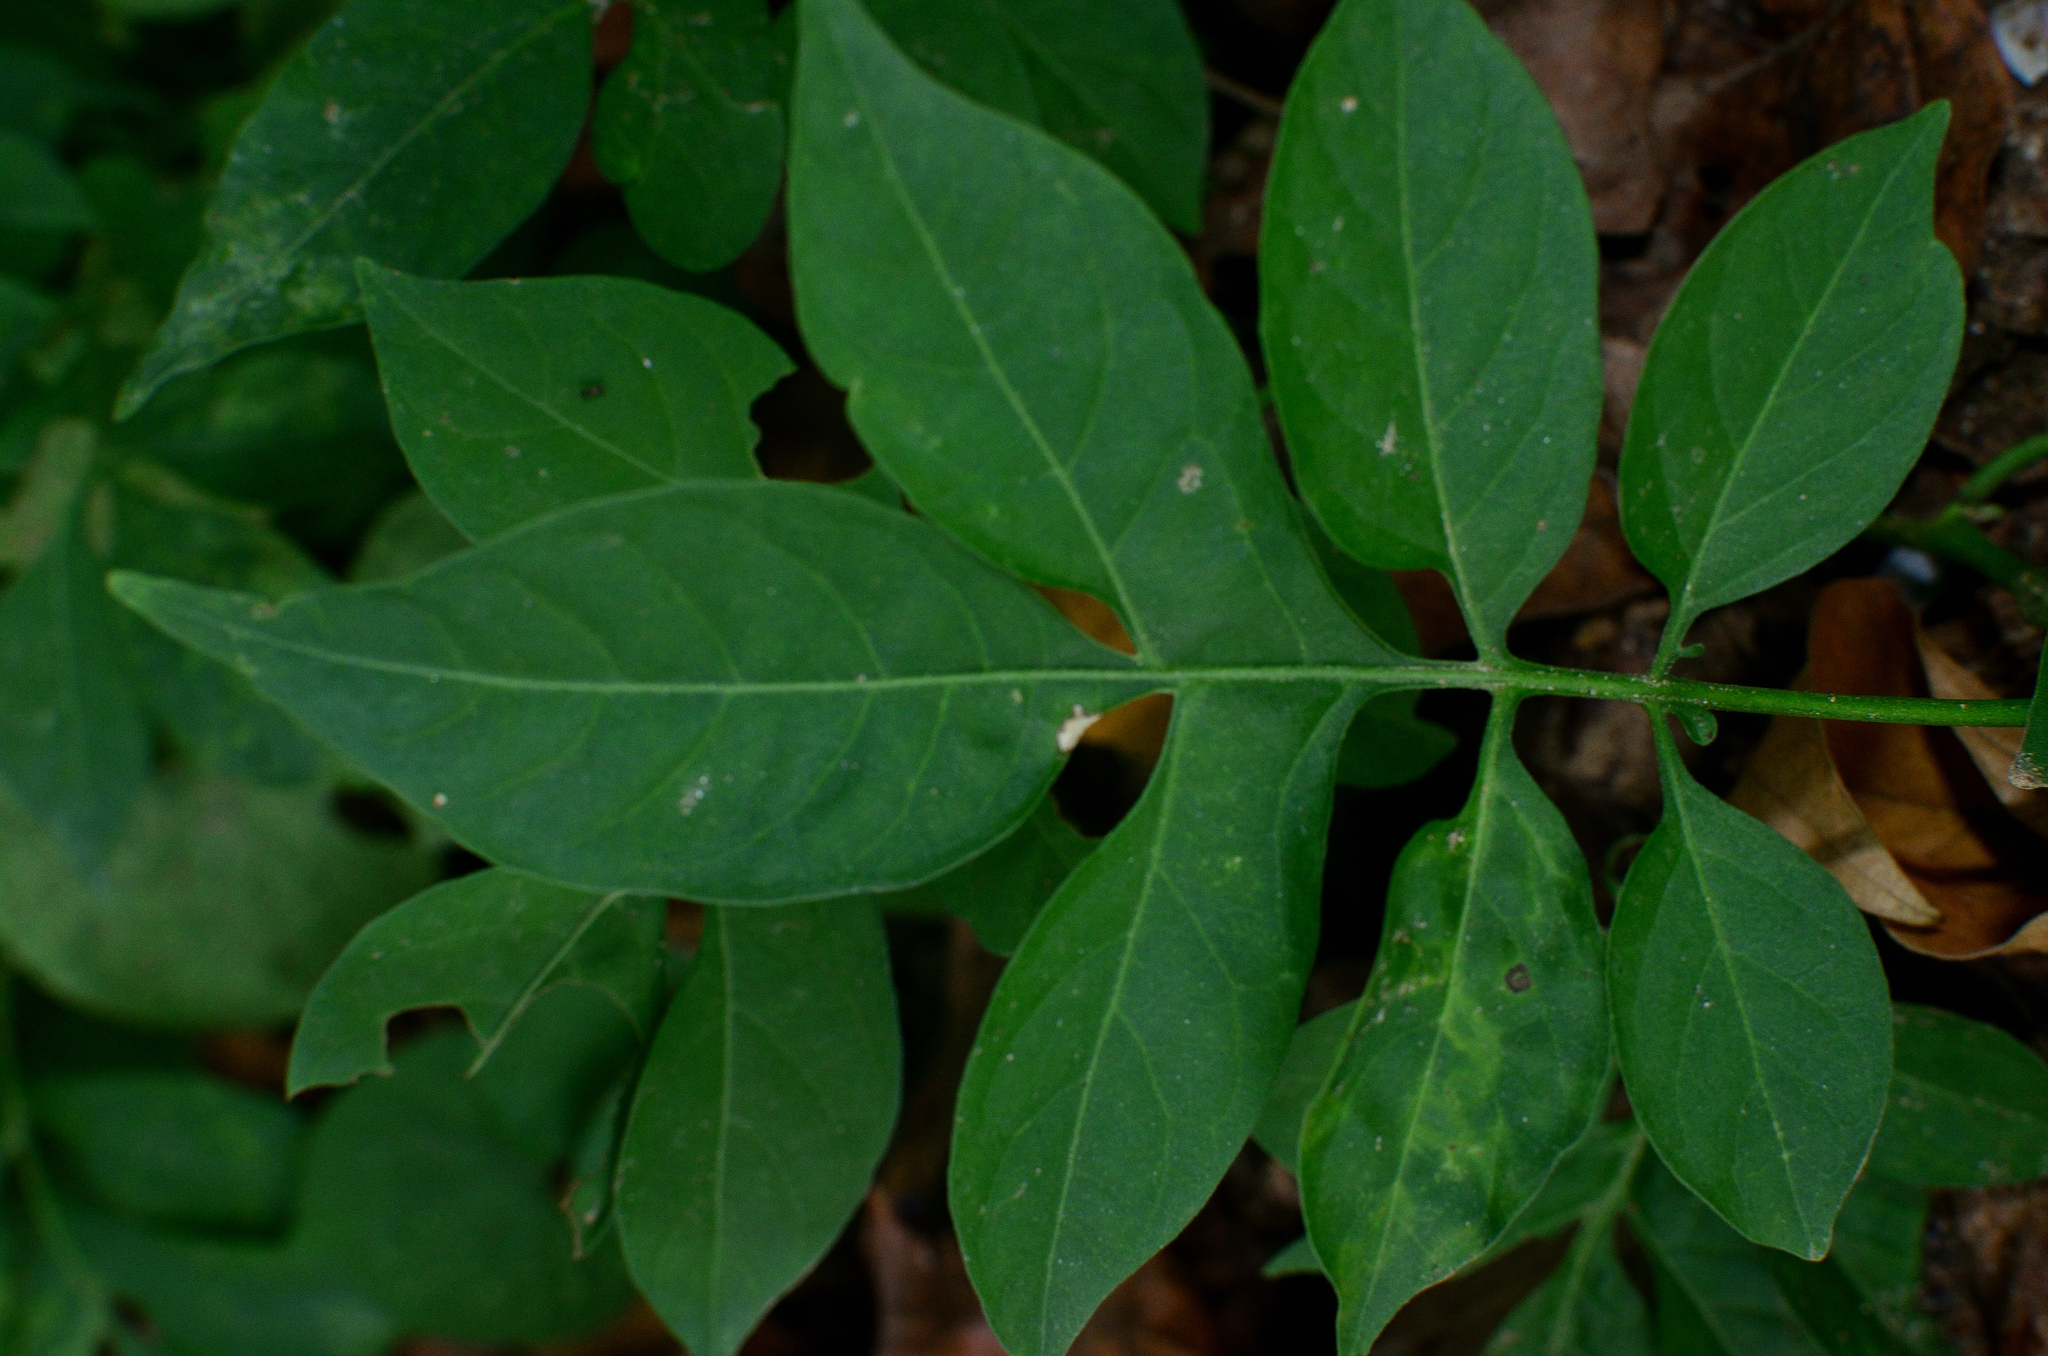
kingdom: Plantae
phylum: Tracheophyta
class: Magnoliopsida
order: Solanales
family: Solanaceae
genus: Solanum
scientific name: Solanum seaforthianum
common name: Brazilian nightshade
